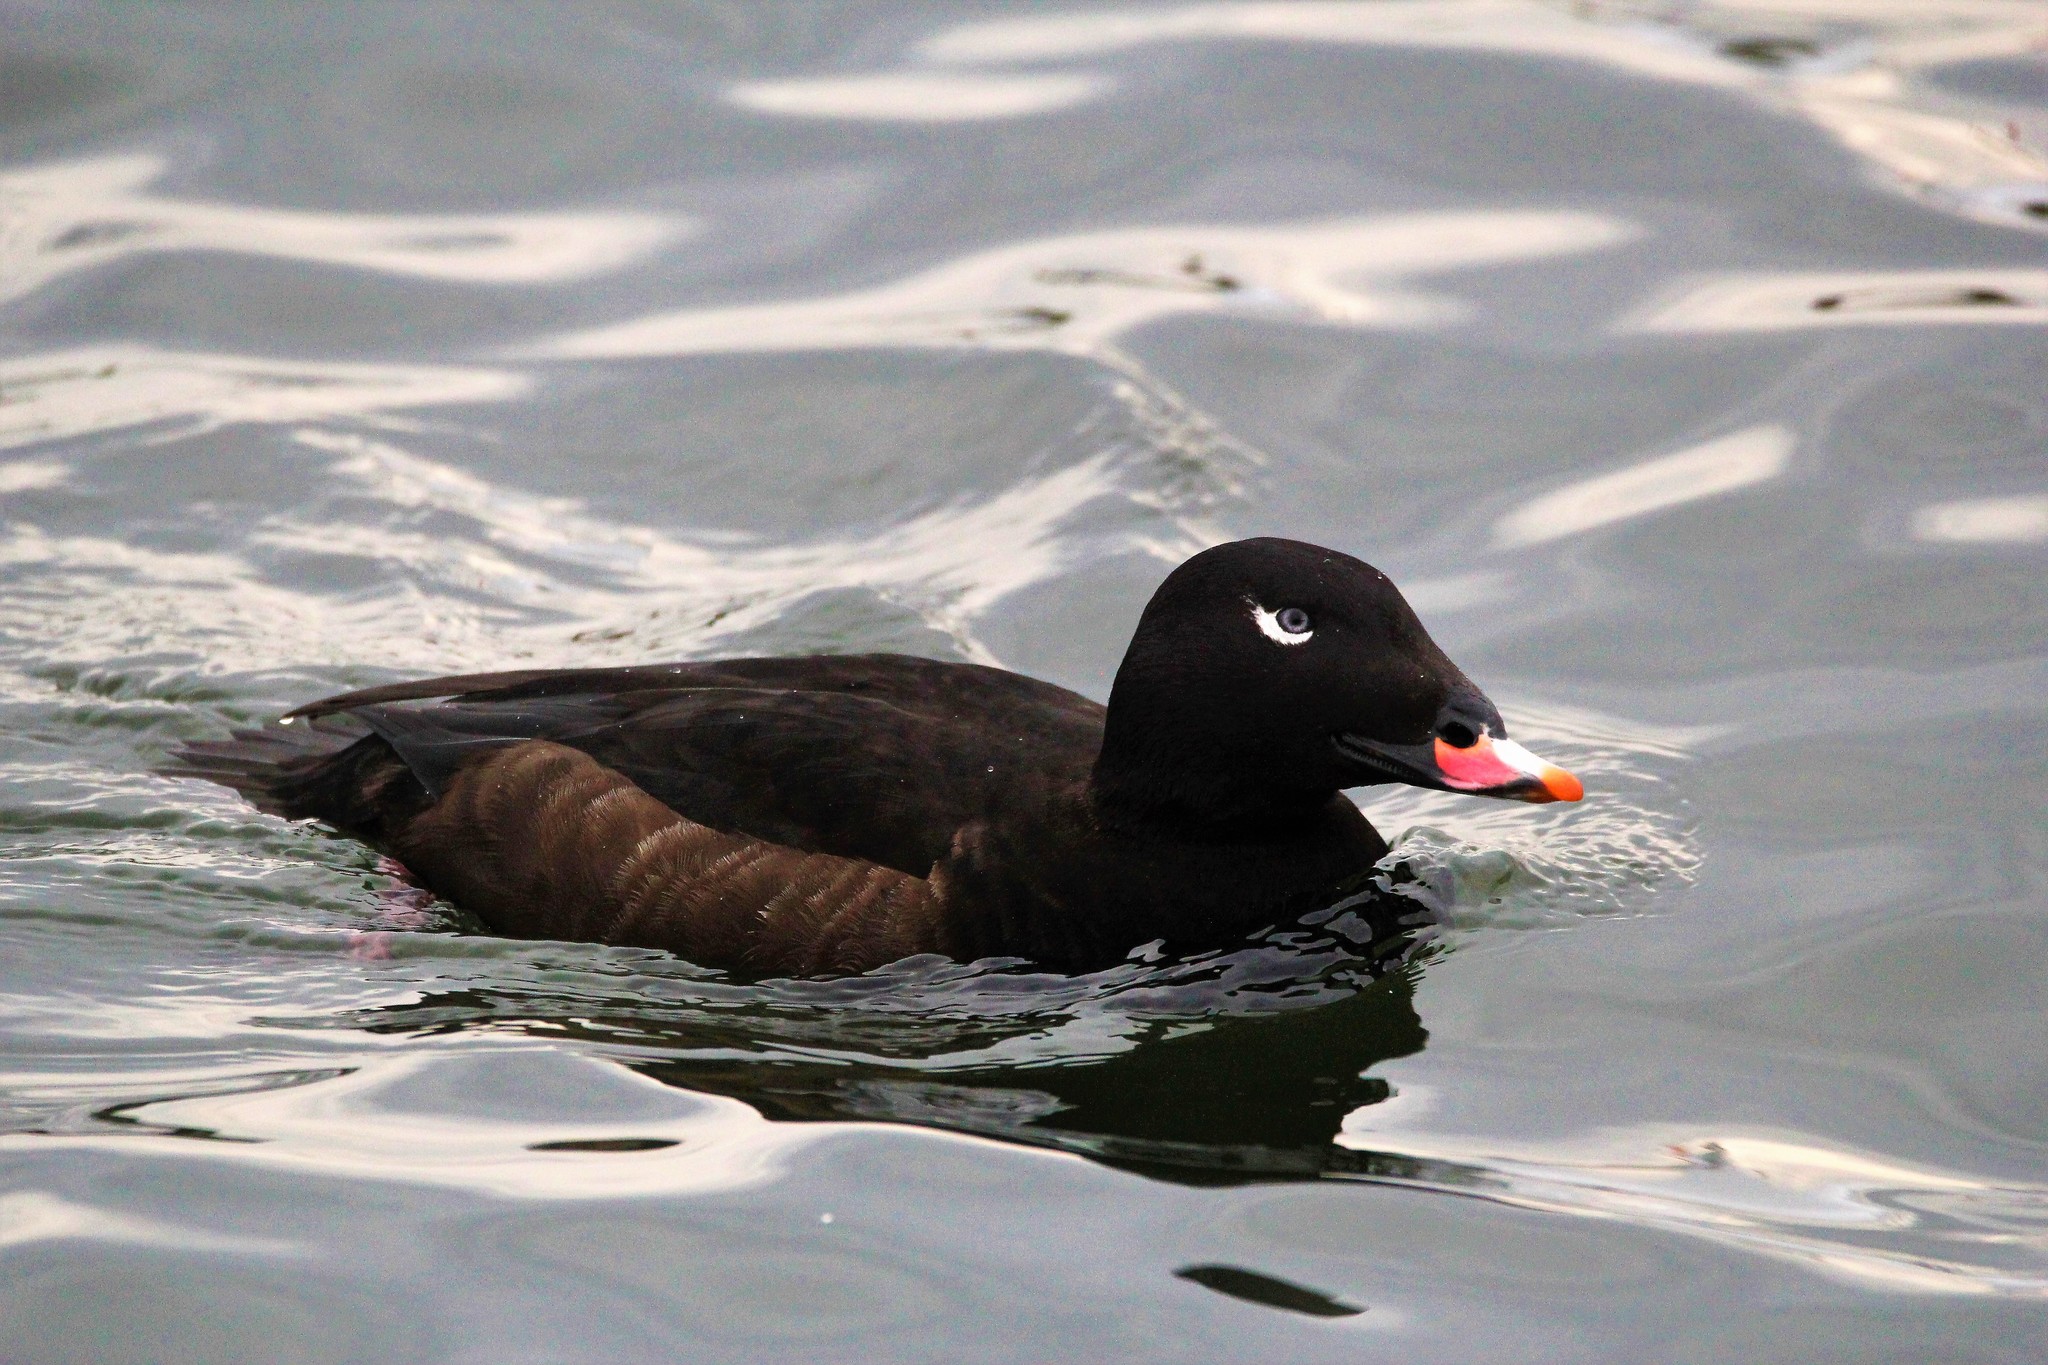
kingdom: Animalia
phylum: Chordata
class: Aves
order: Anseriformes
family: Anatidae
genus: Melanitta
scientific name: Melanitta deglandi
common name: White-winged scoter
